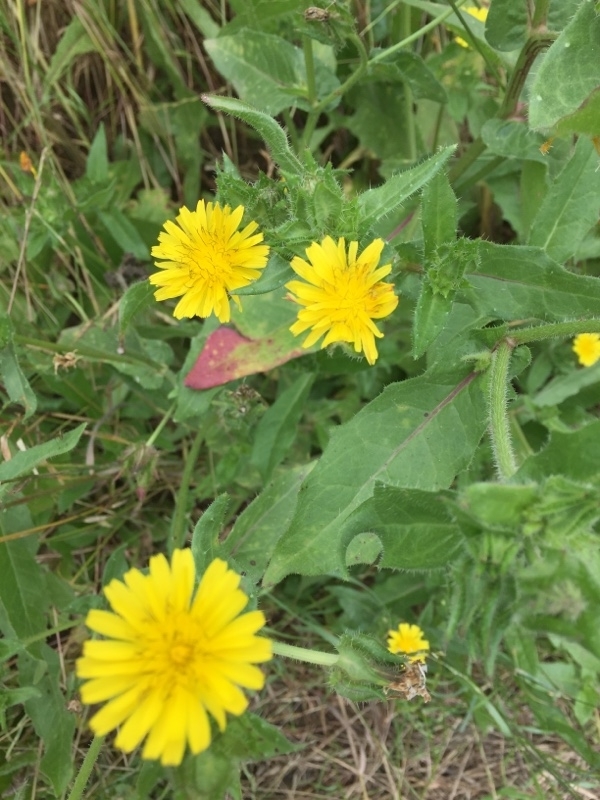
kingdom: Plantae
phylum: Tracheophyta
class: Magnoliopsida
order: Asterales
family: Asteraceae
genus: Helminthotheca
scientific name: Helminthotheca echioides
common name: Ox-tongue
